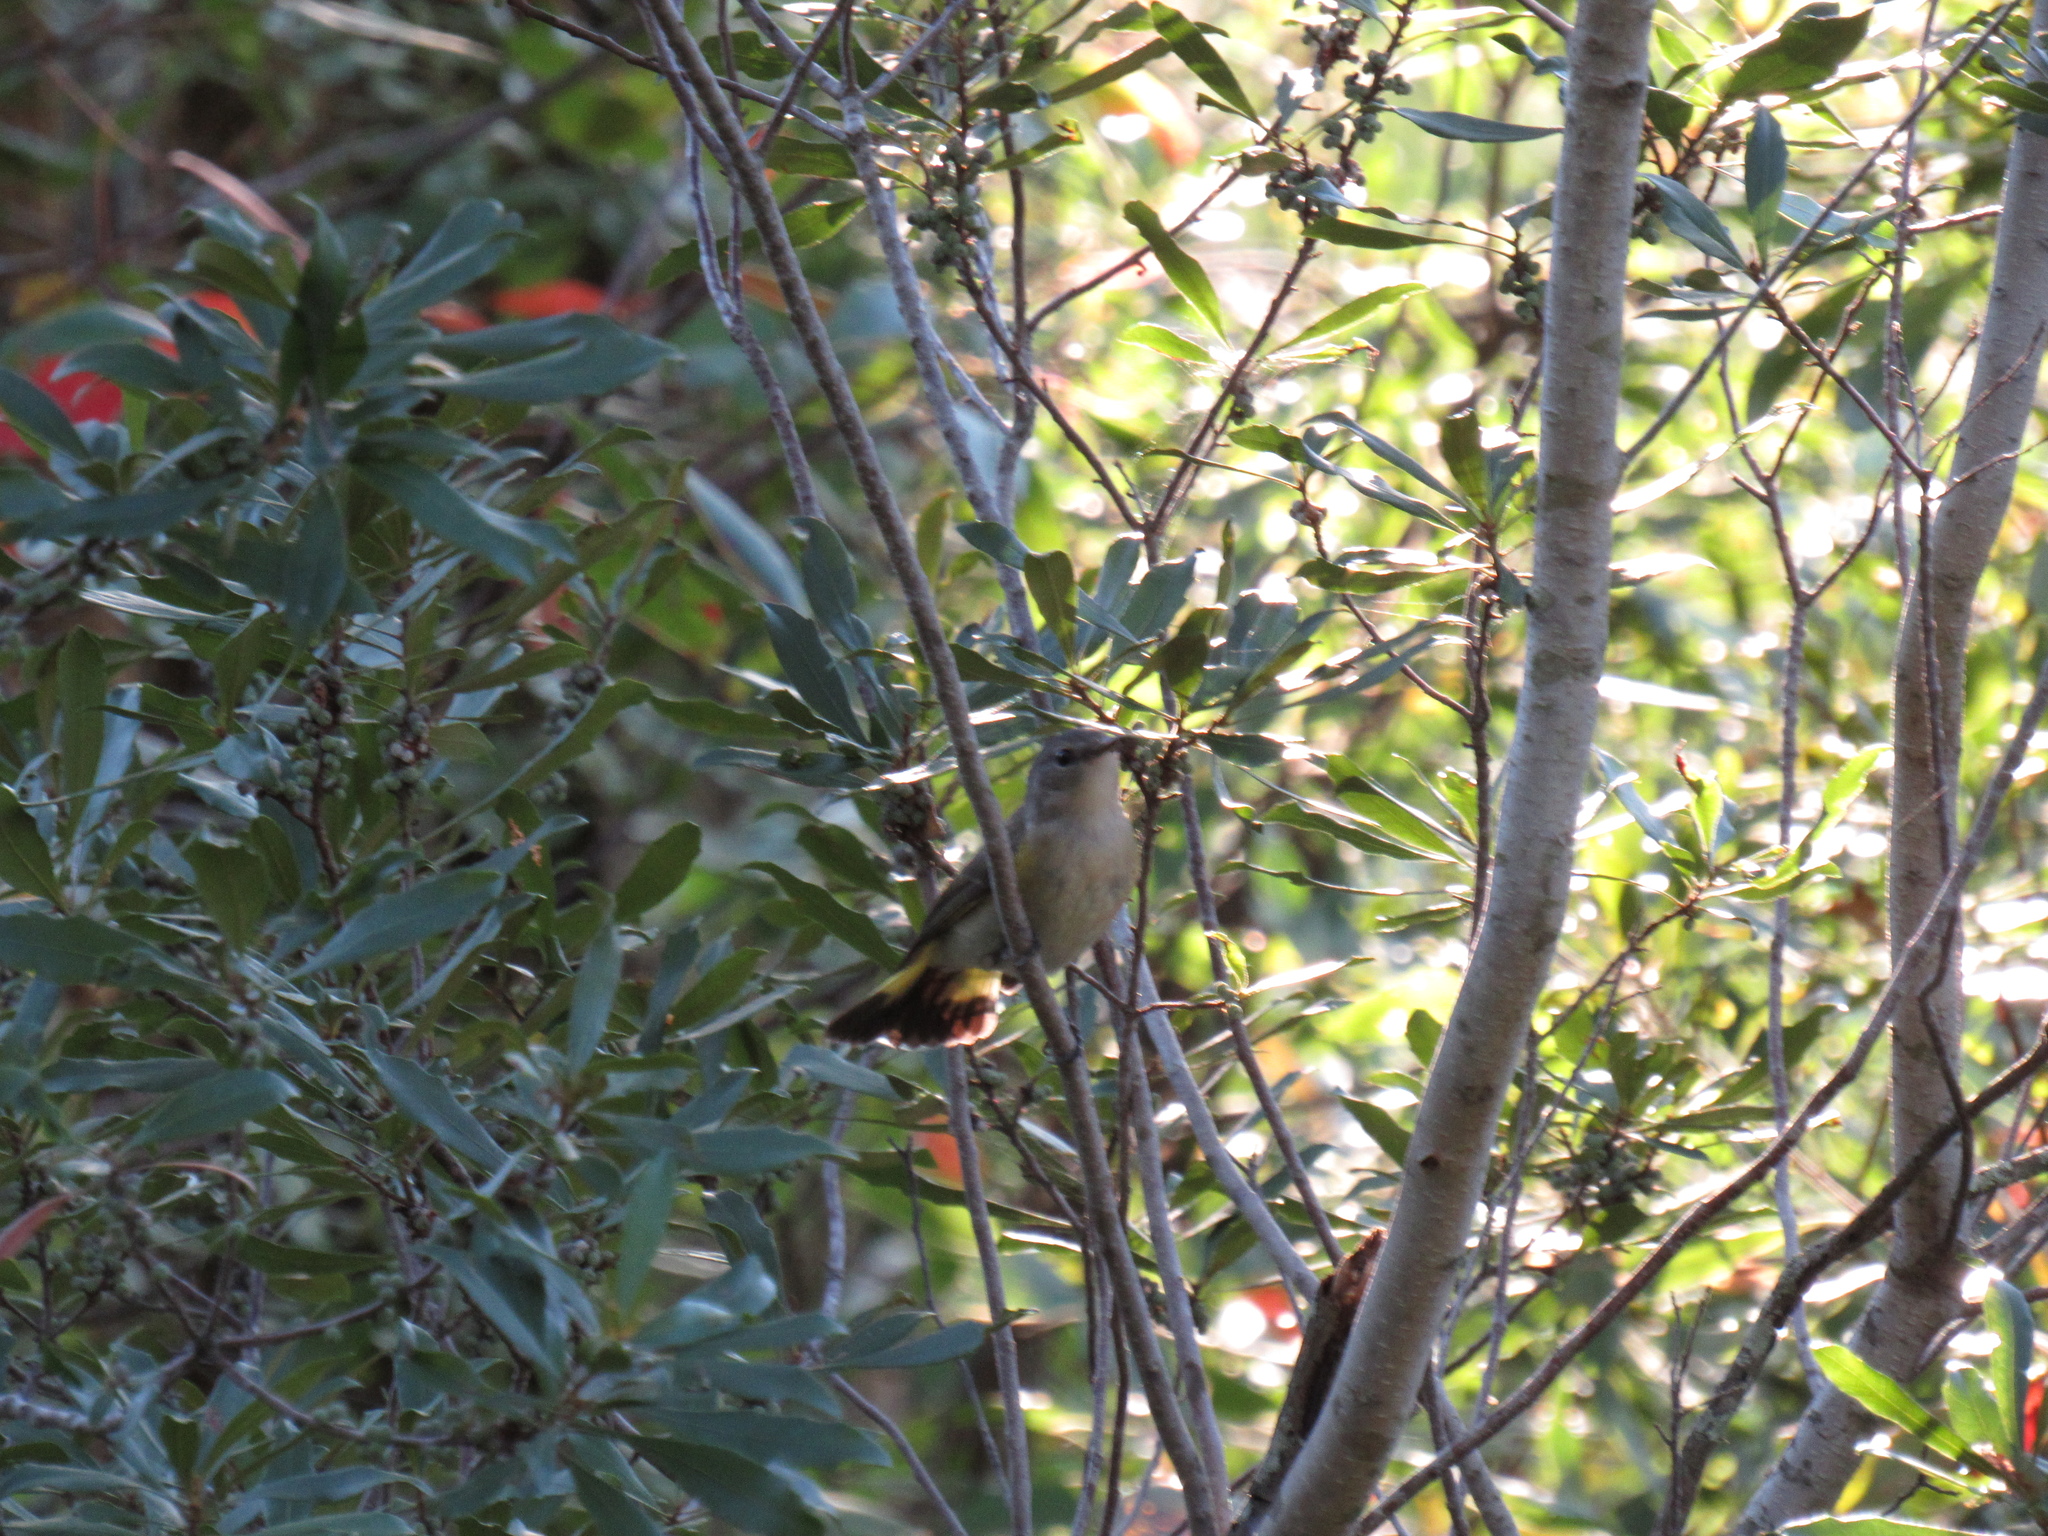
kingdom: Animalia
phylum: Chordata
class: Aves
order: Passeriformes
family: Parulidae
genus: Setophaga
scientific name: Setophaga ruticilla
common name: American redstart
